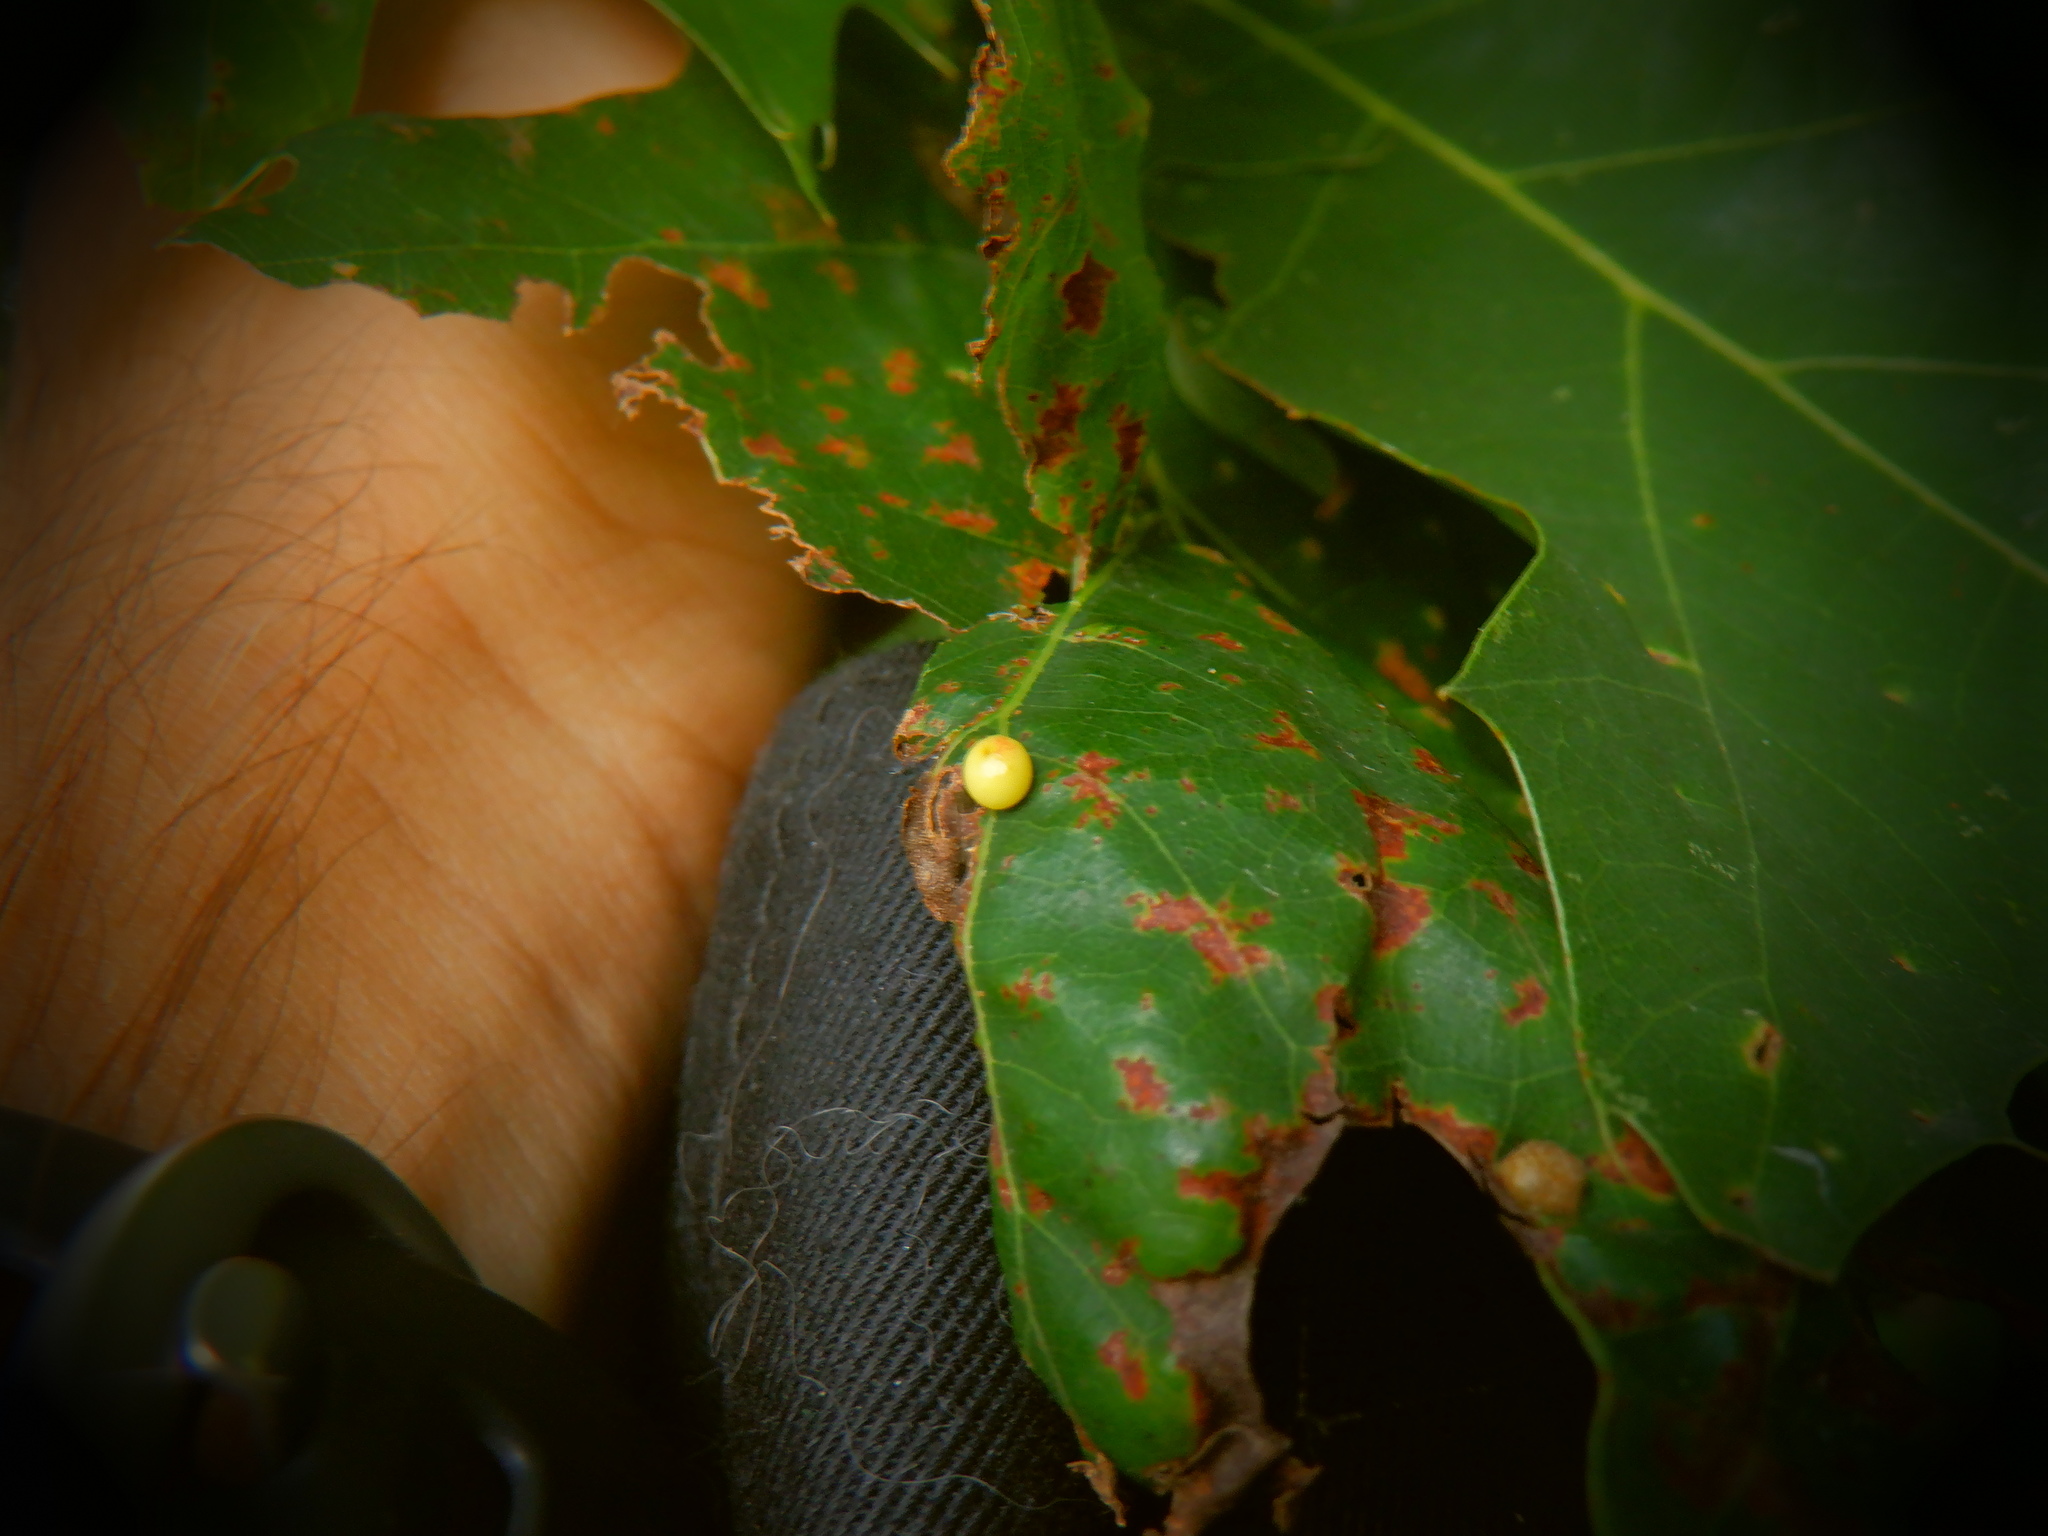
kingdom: Animalia
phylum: Arthropoda
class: Insecta
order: Hymenoptera
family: Cynipidae
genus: Zopheroteras
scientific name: Zopheroteras
